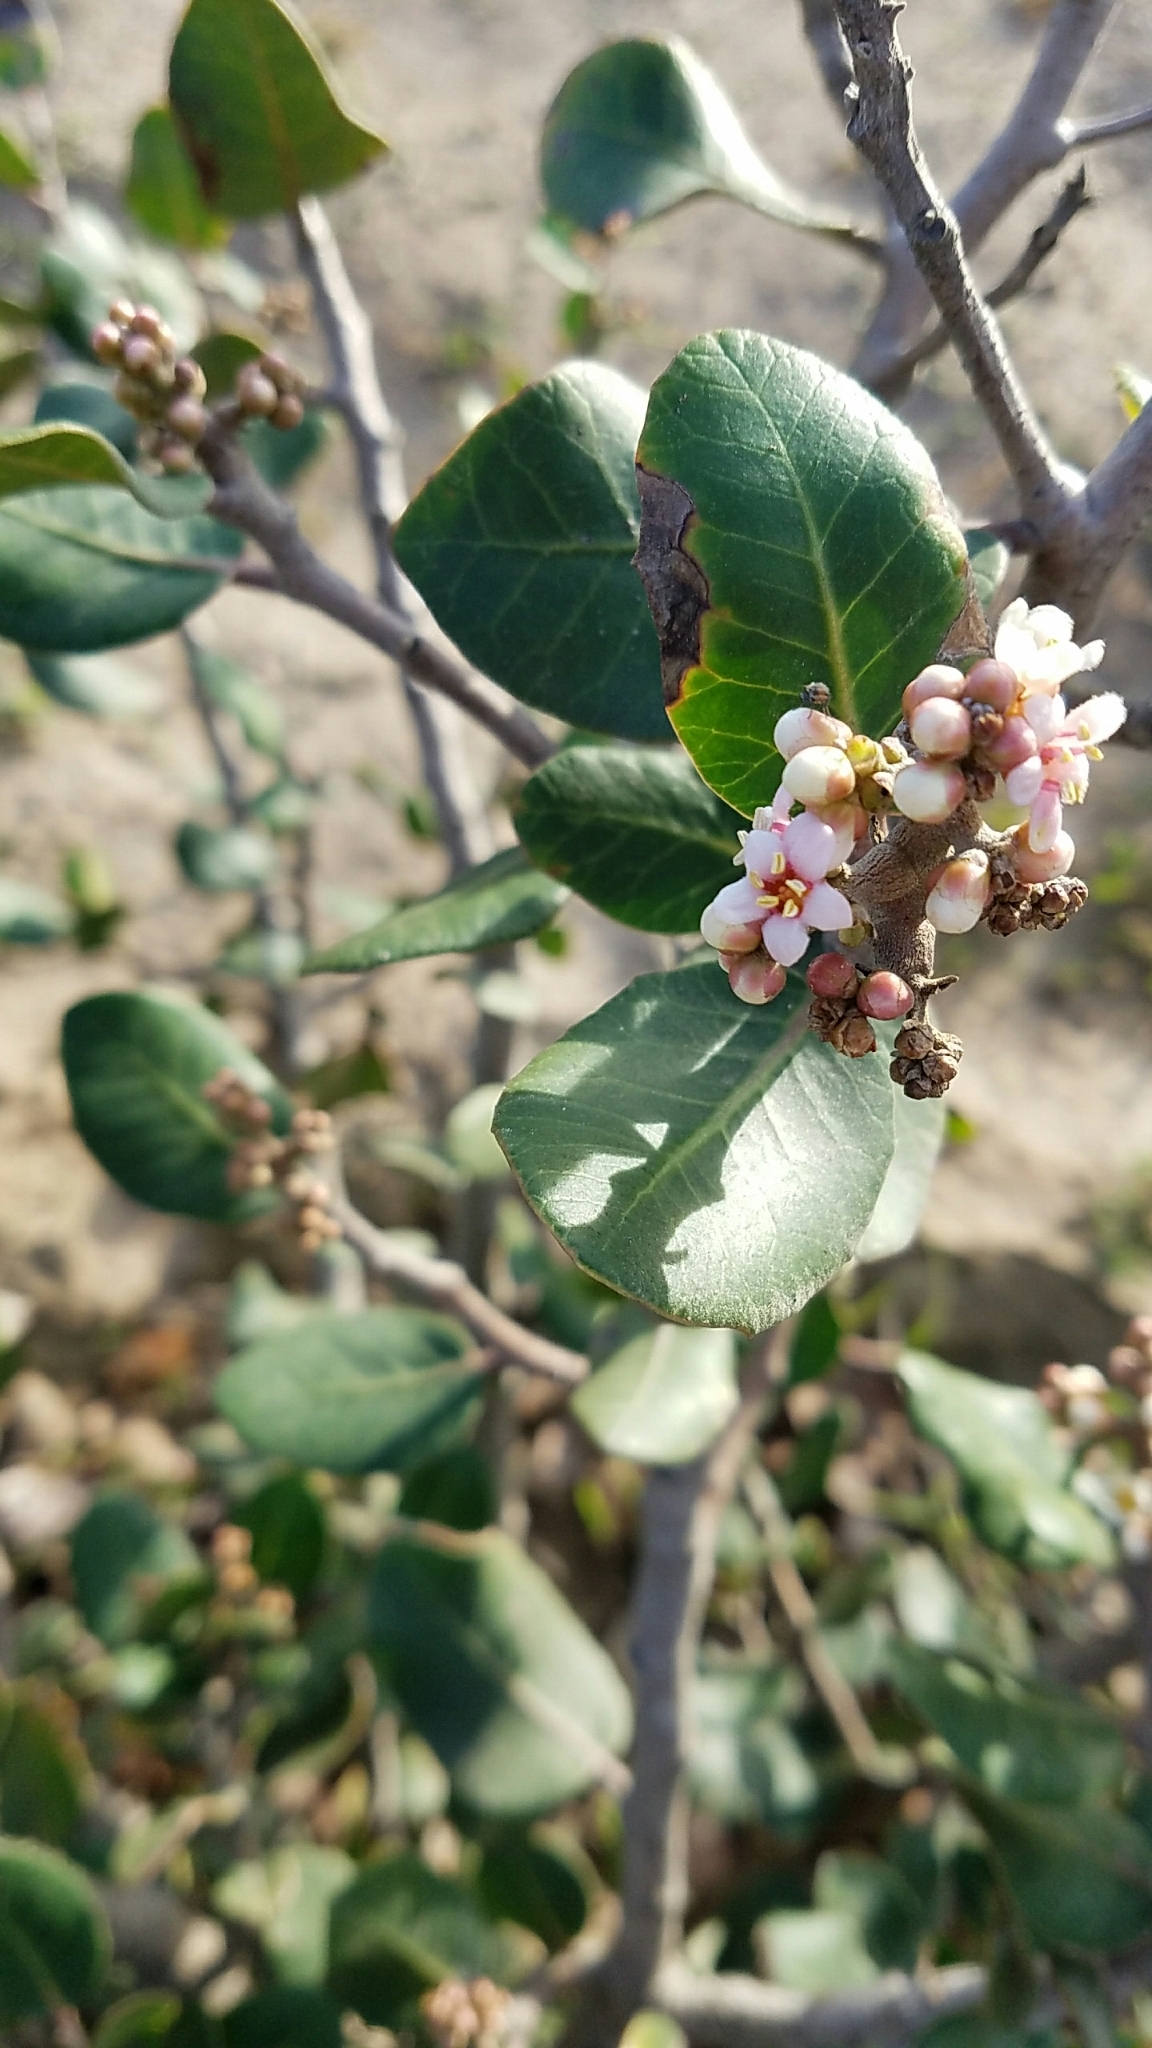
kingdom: Plantae
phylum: Tracheophyta
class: Magnoliopsida
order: Sapindales
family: Anacardiaceae
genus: Rhus
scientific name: Rhus integrifolia
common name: Lemonade sumac
